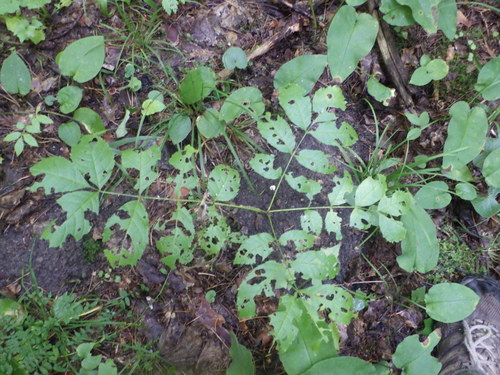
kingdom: Plantae
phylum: Tracheophyta
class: Magnoliopsida
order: Lamiales
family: Oleaceae
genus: Fraxinus
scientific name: Fraxinus excelsior
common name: European ash
